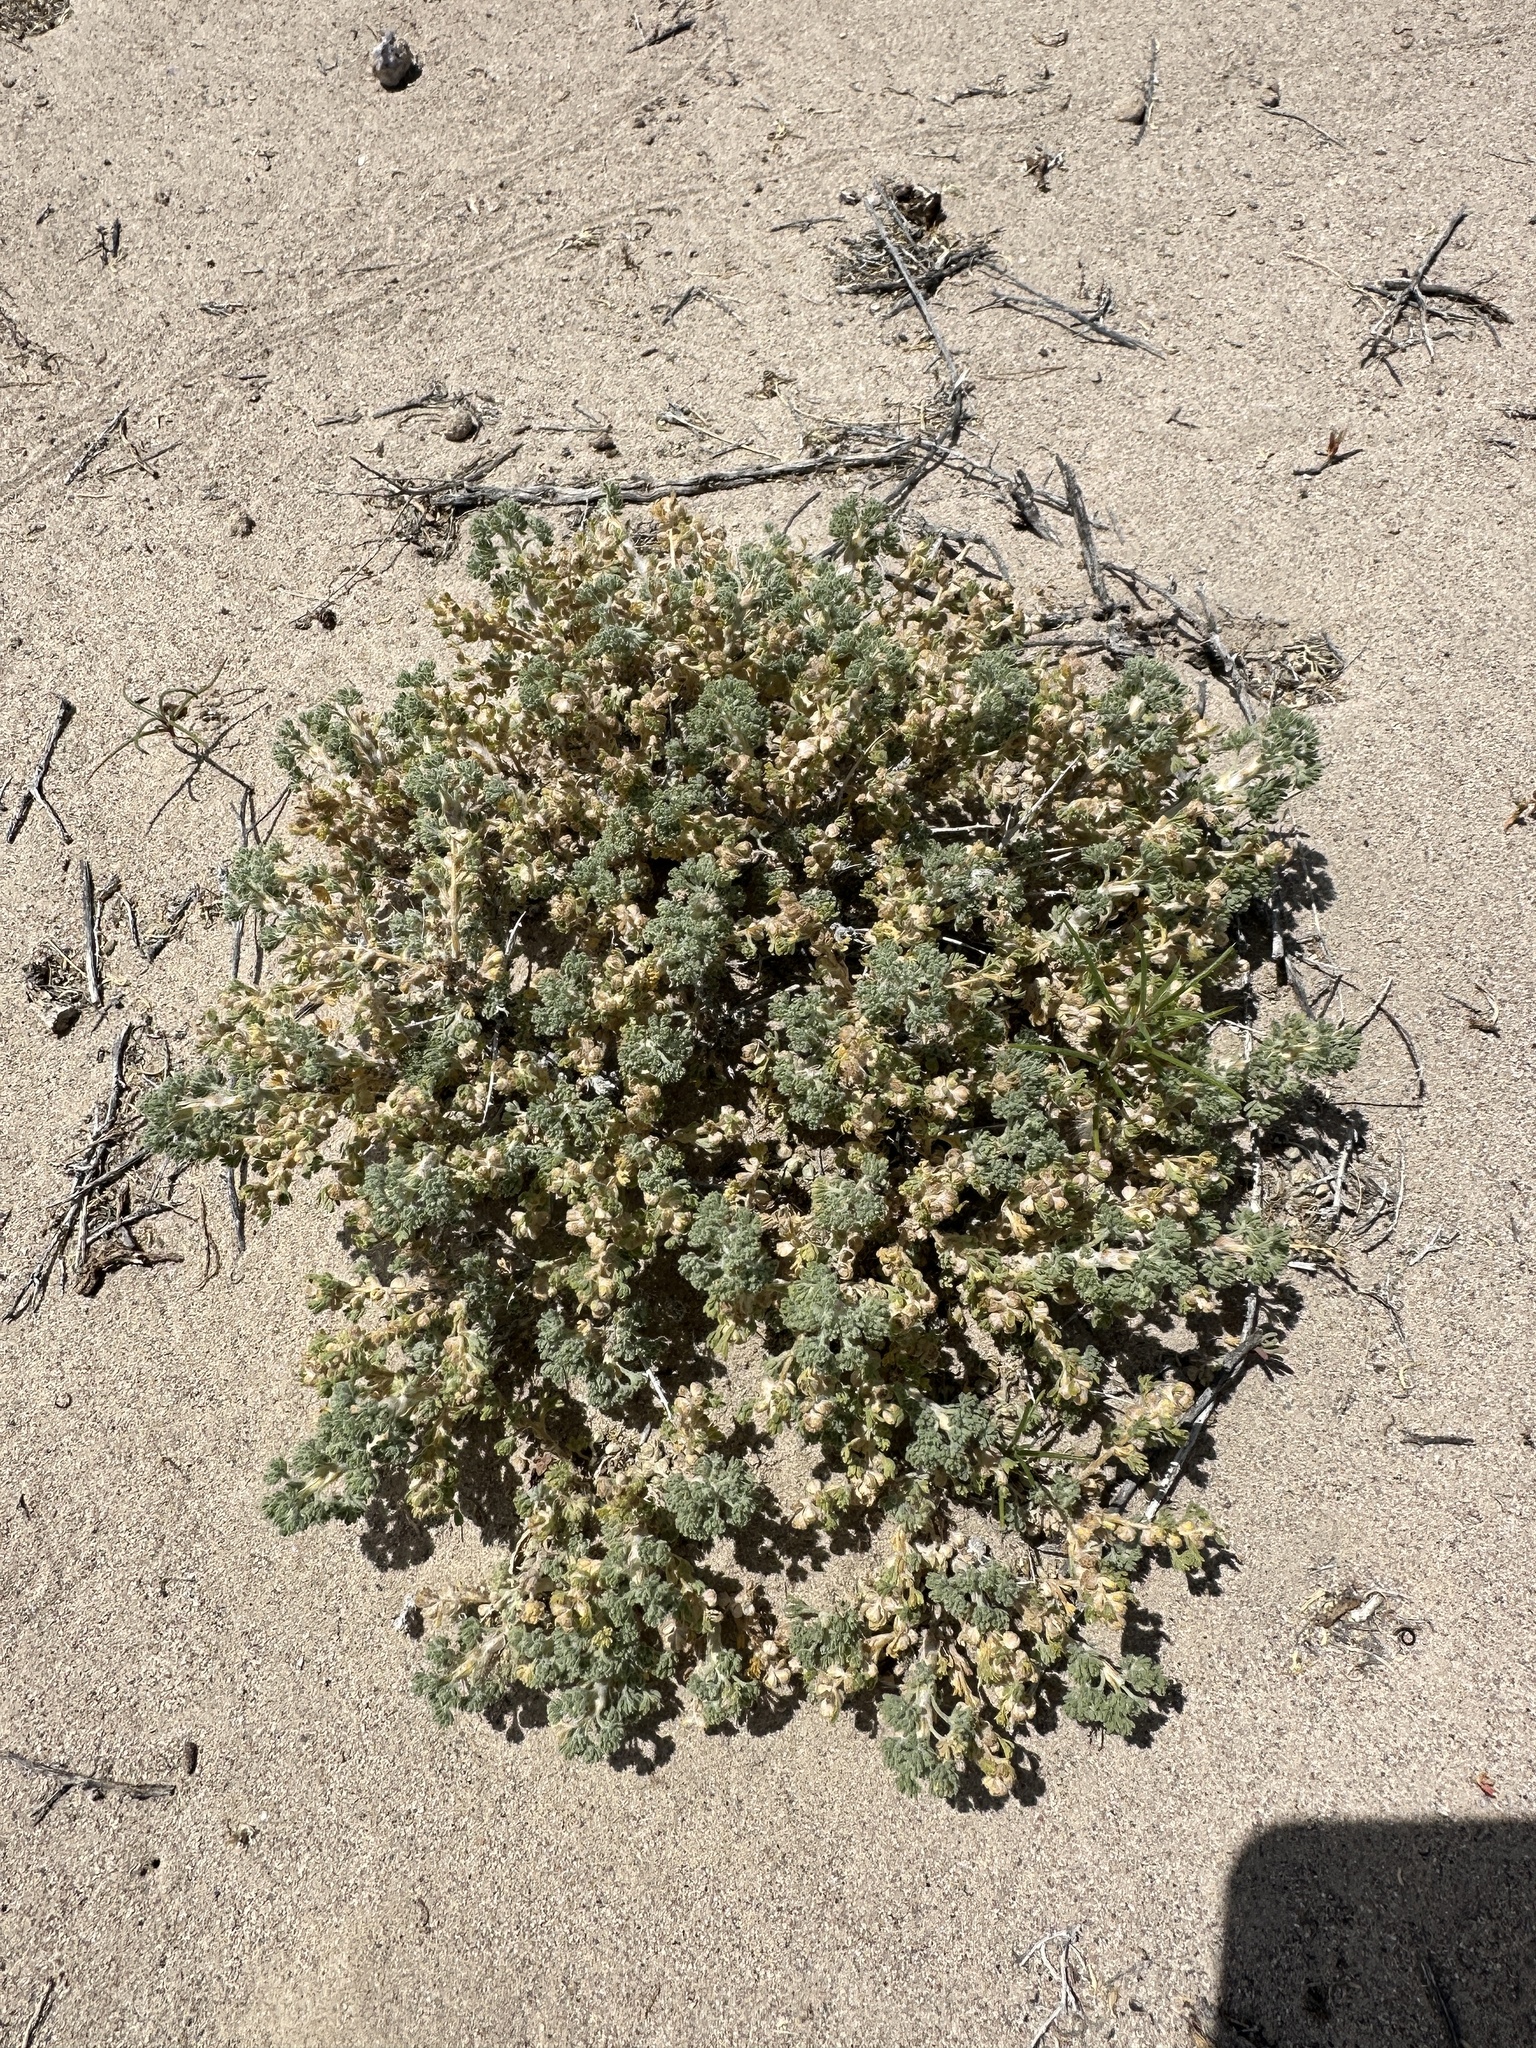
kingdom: Plantae
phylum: Tracheophyta
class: Magnoliopsida
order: Asterales
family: Asteraceae
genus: Artemisia
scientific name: Artemisia spinescens
